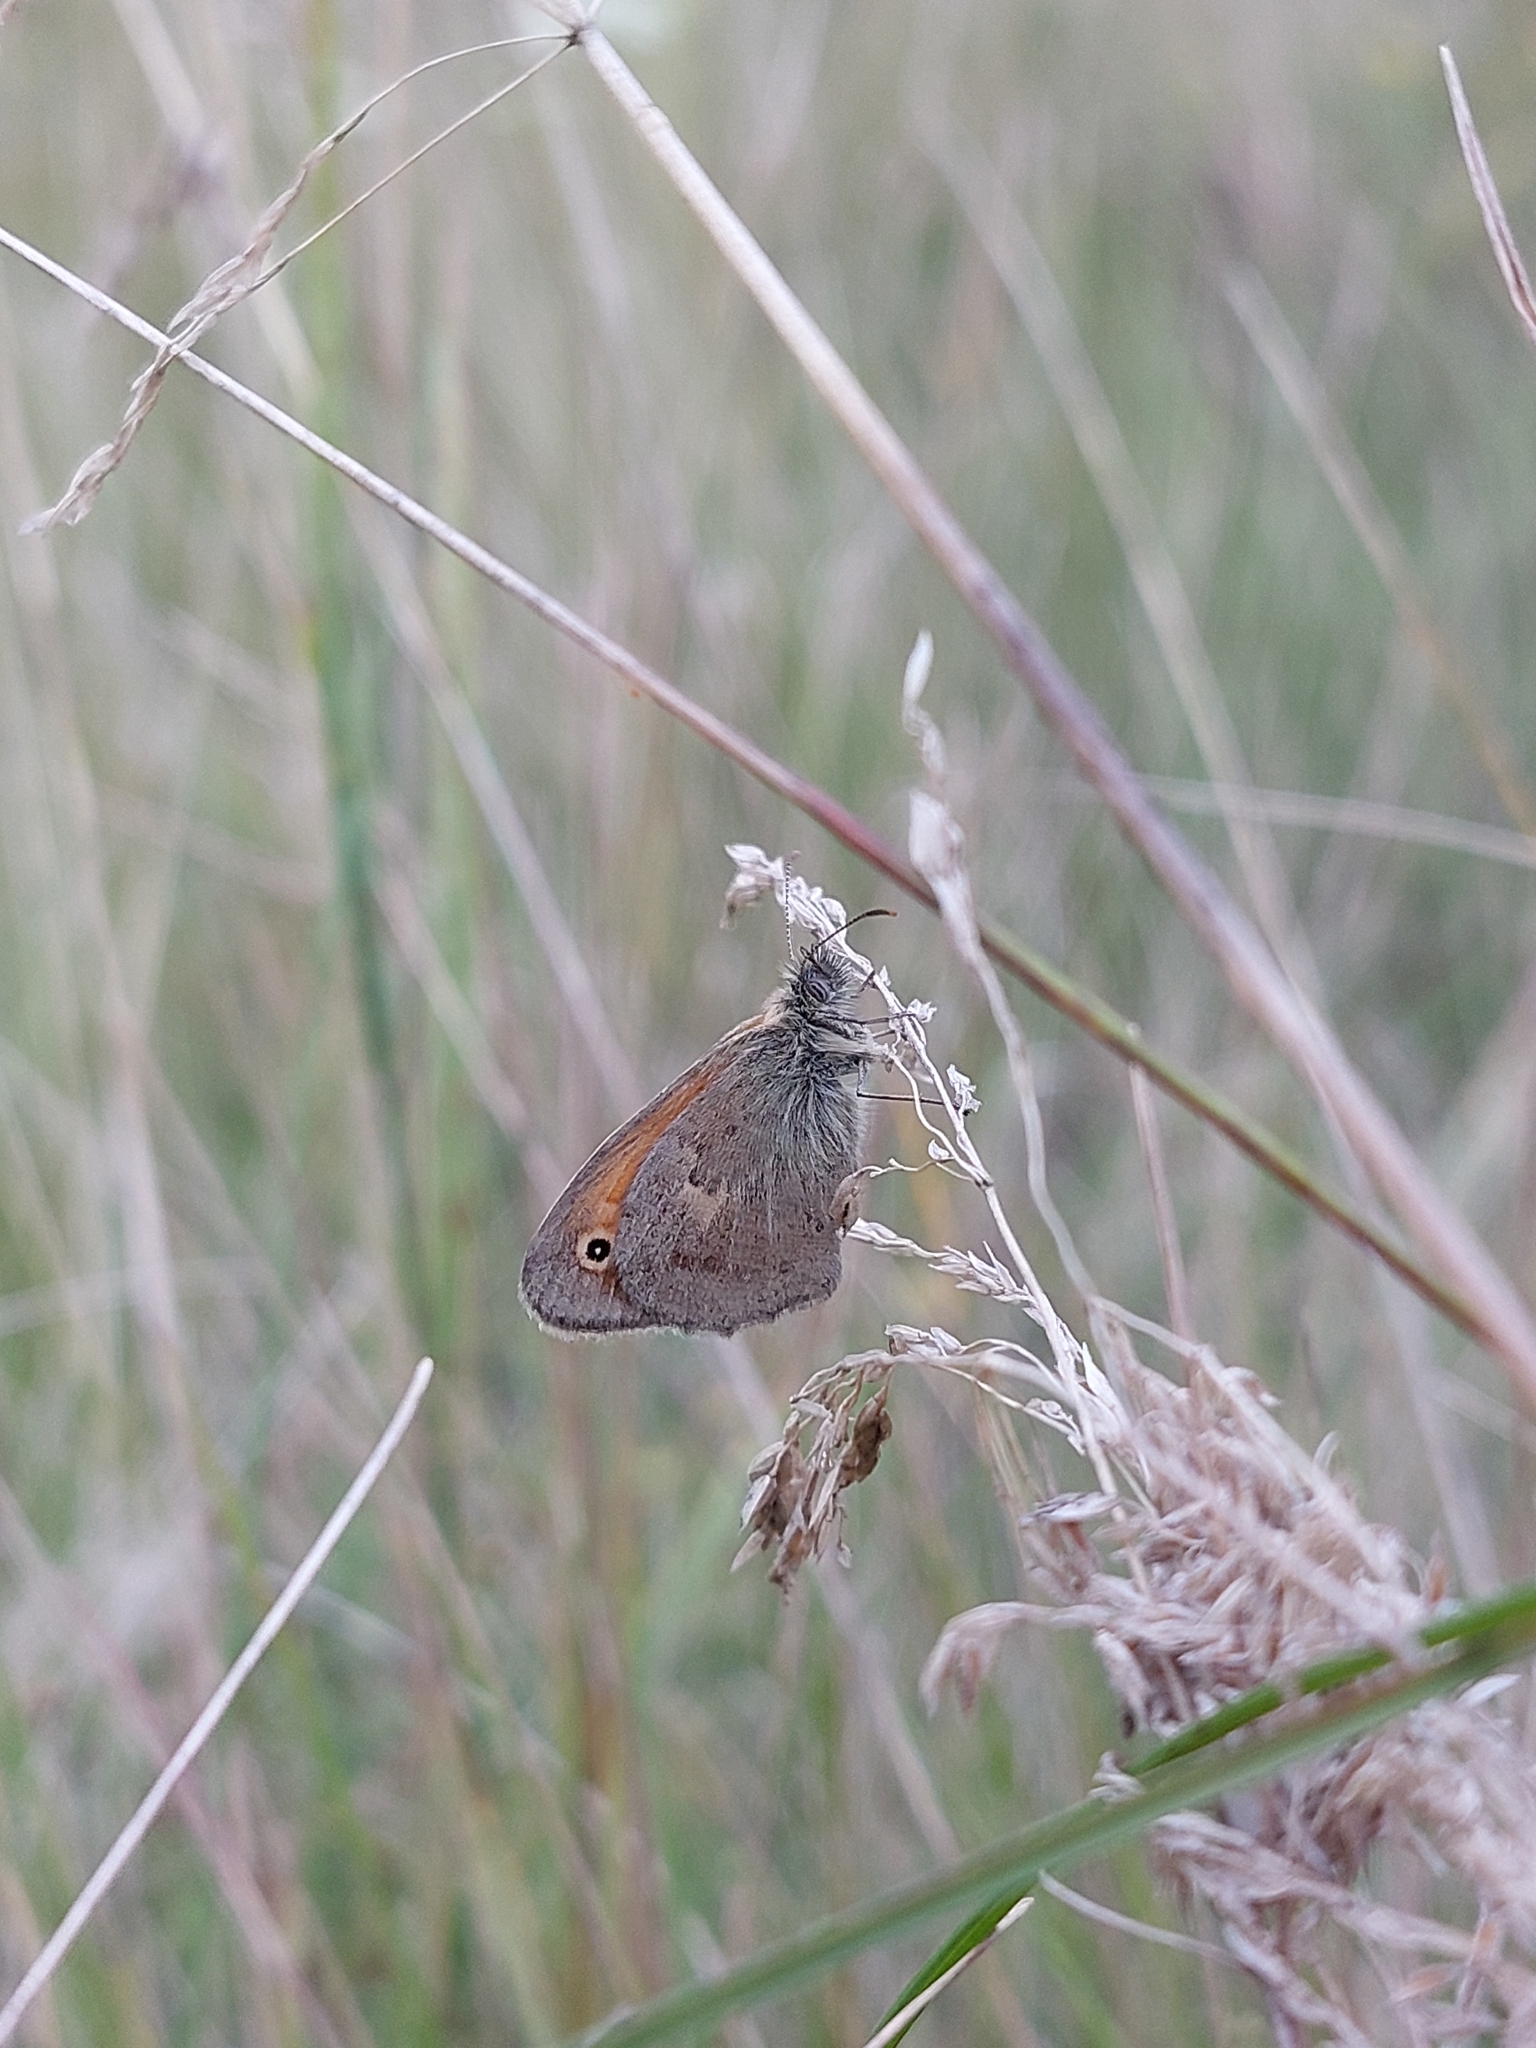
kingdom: Animalia
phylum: Arthropoda
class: Insecta
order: Lepidoptera
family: Nymphalidae
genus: Coenonympha
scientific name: Coenonympha pamphilus
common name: Small heath
